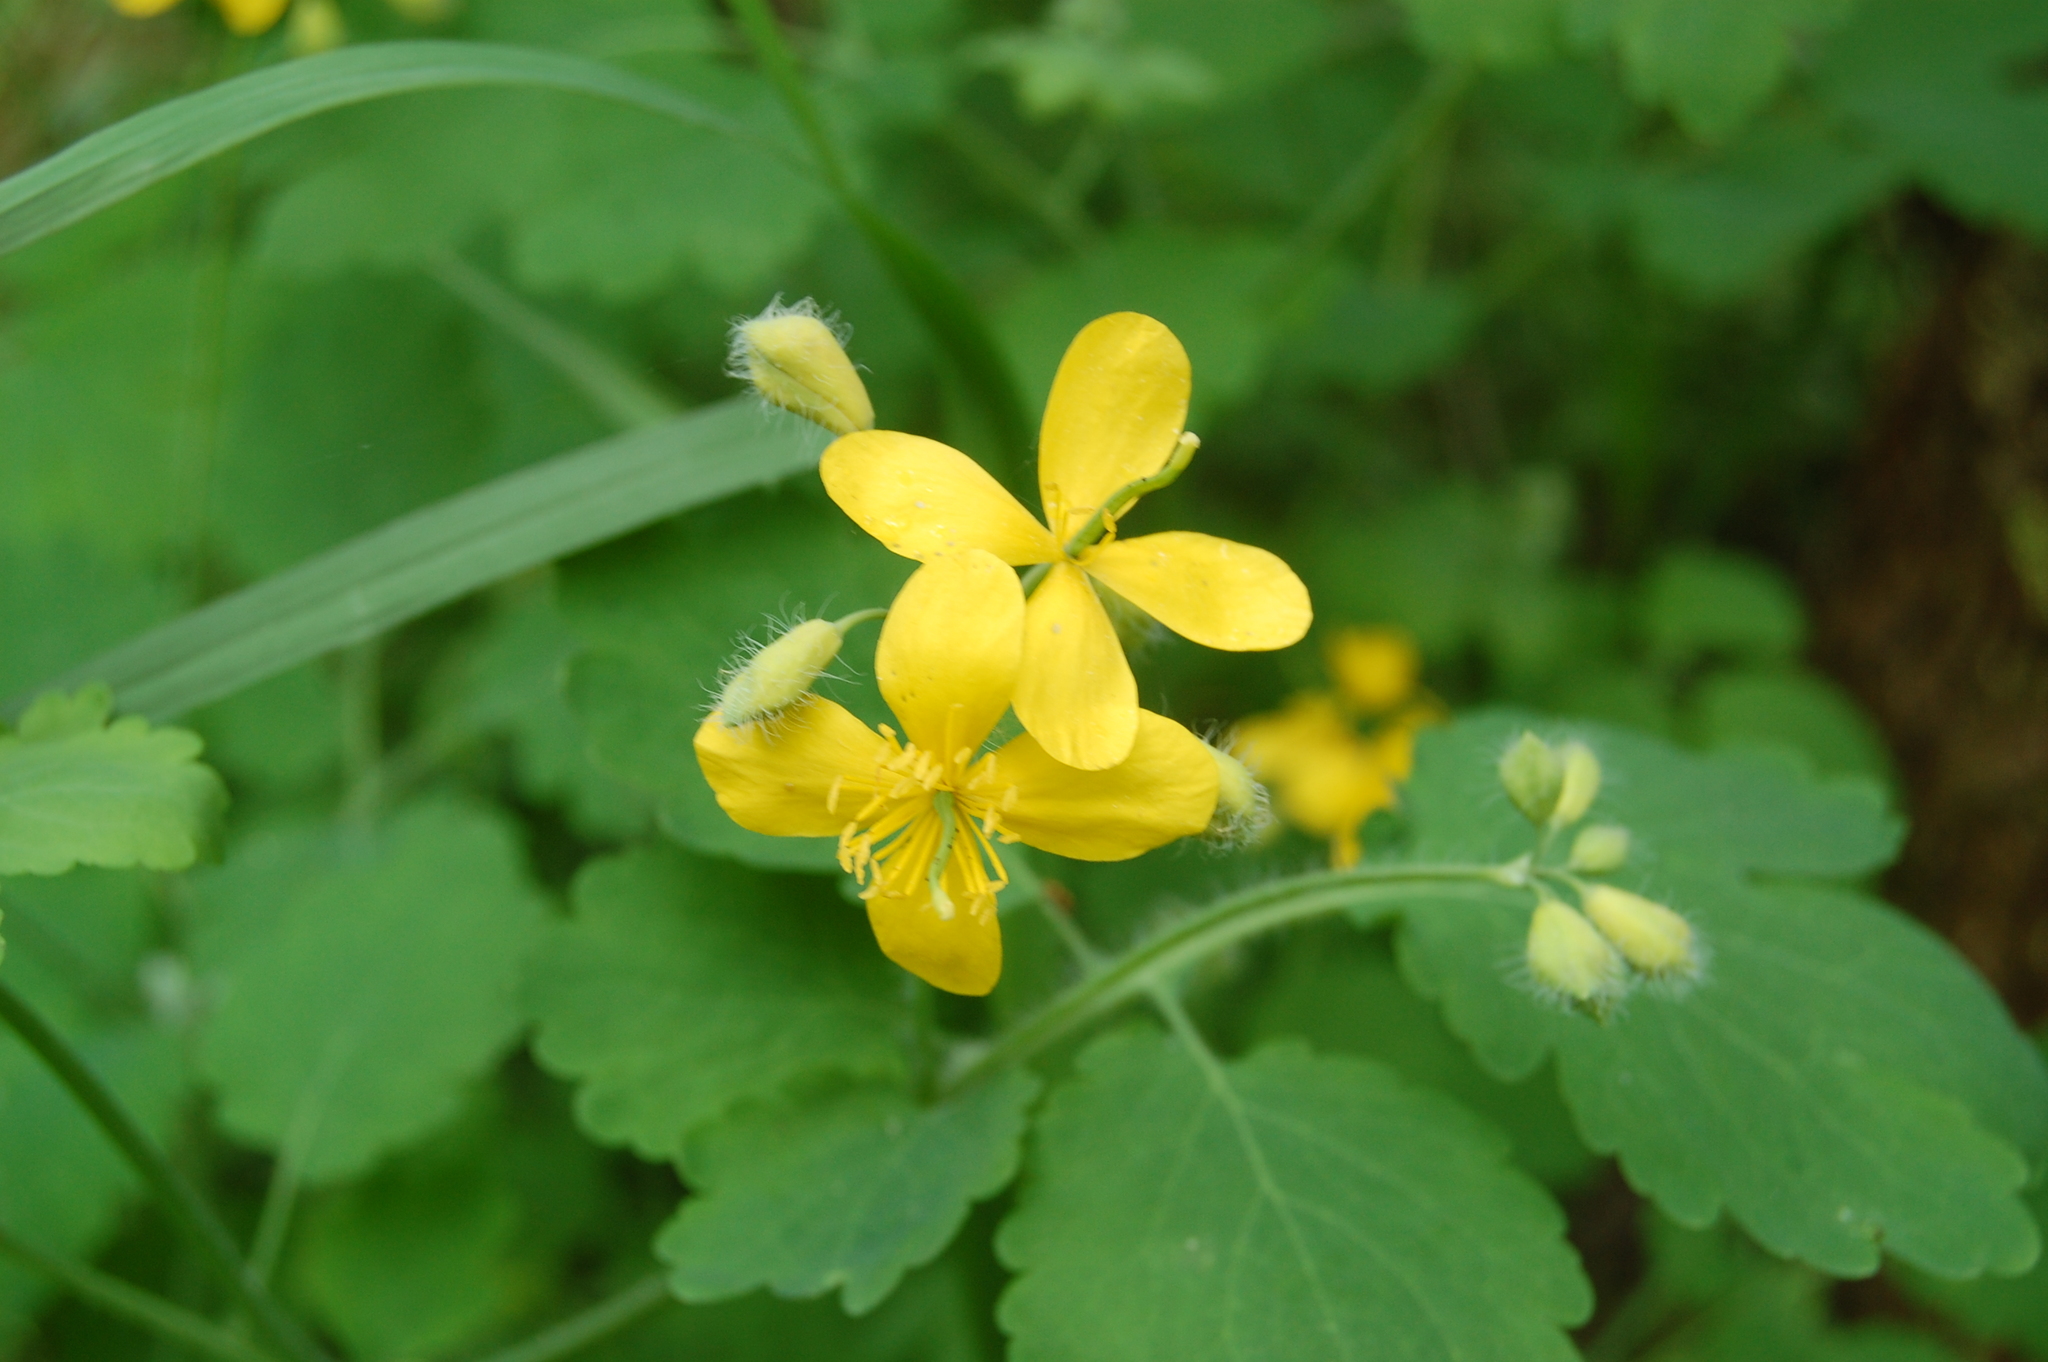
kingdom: Plantae
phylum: Tracheophyta
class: Magnoliopsida
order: Ranunculales
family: Papaveraceae
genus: Chelidonium
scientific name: Chelidonium majus
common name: Greater celandine
